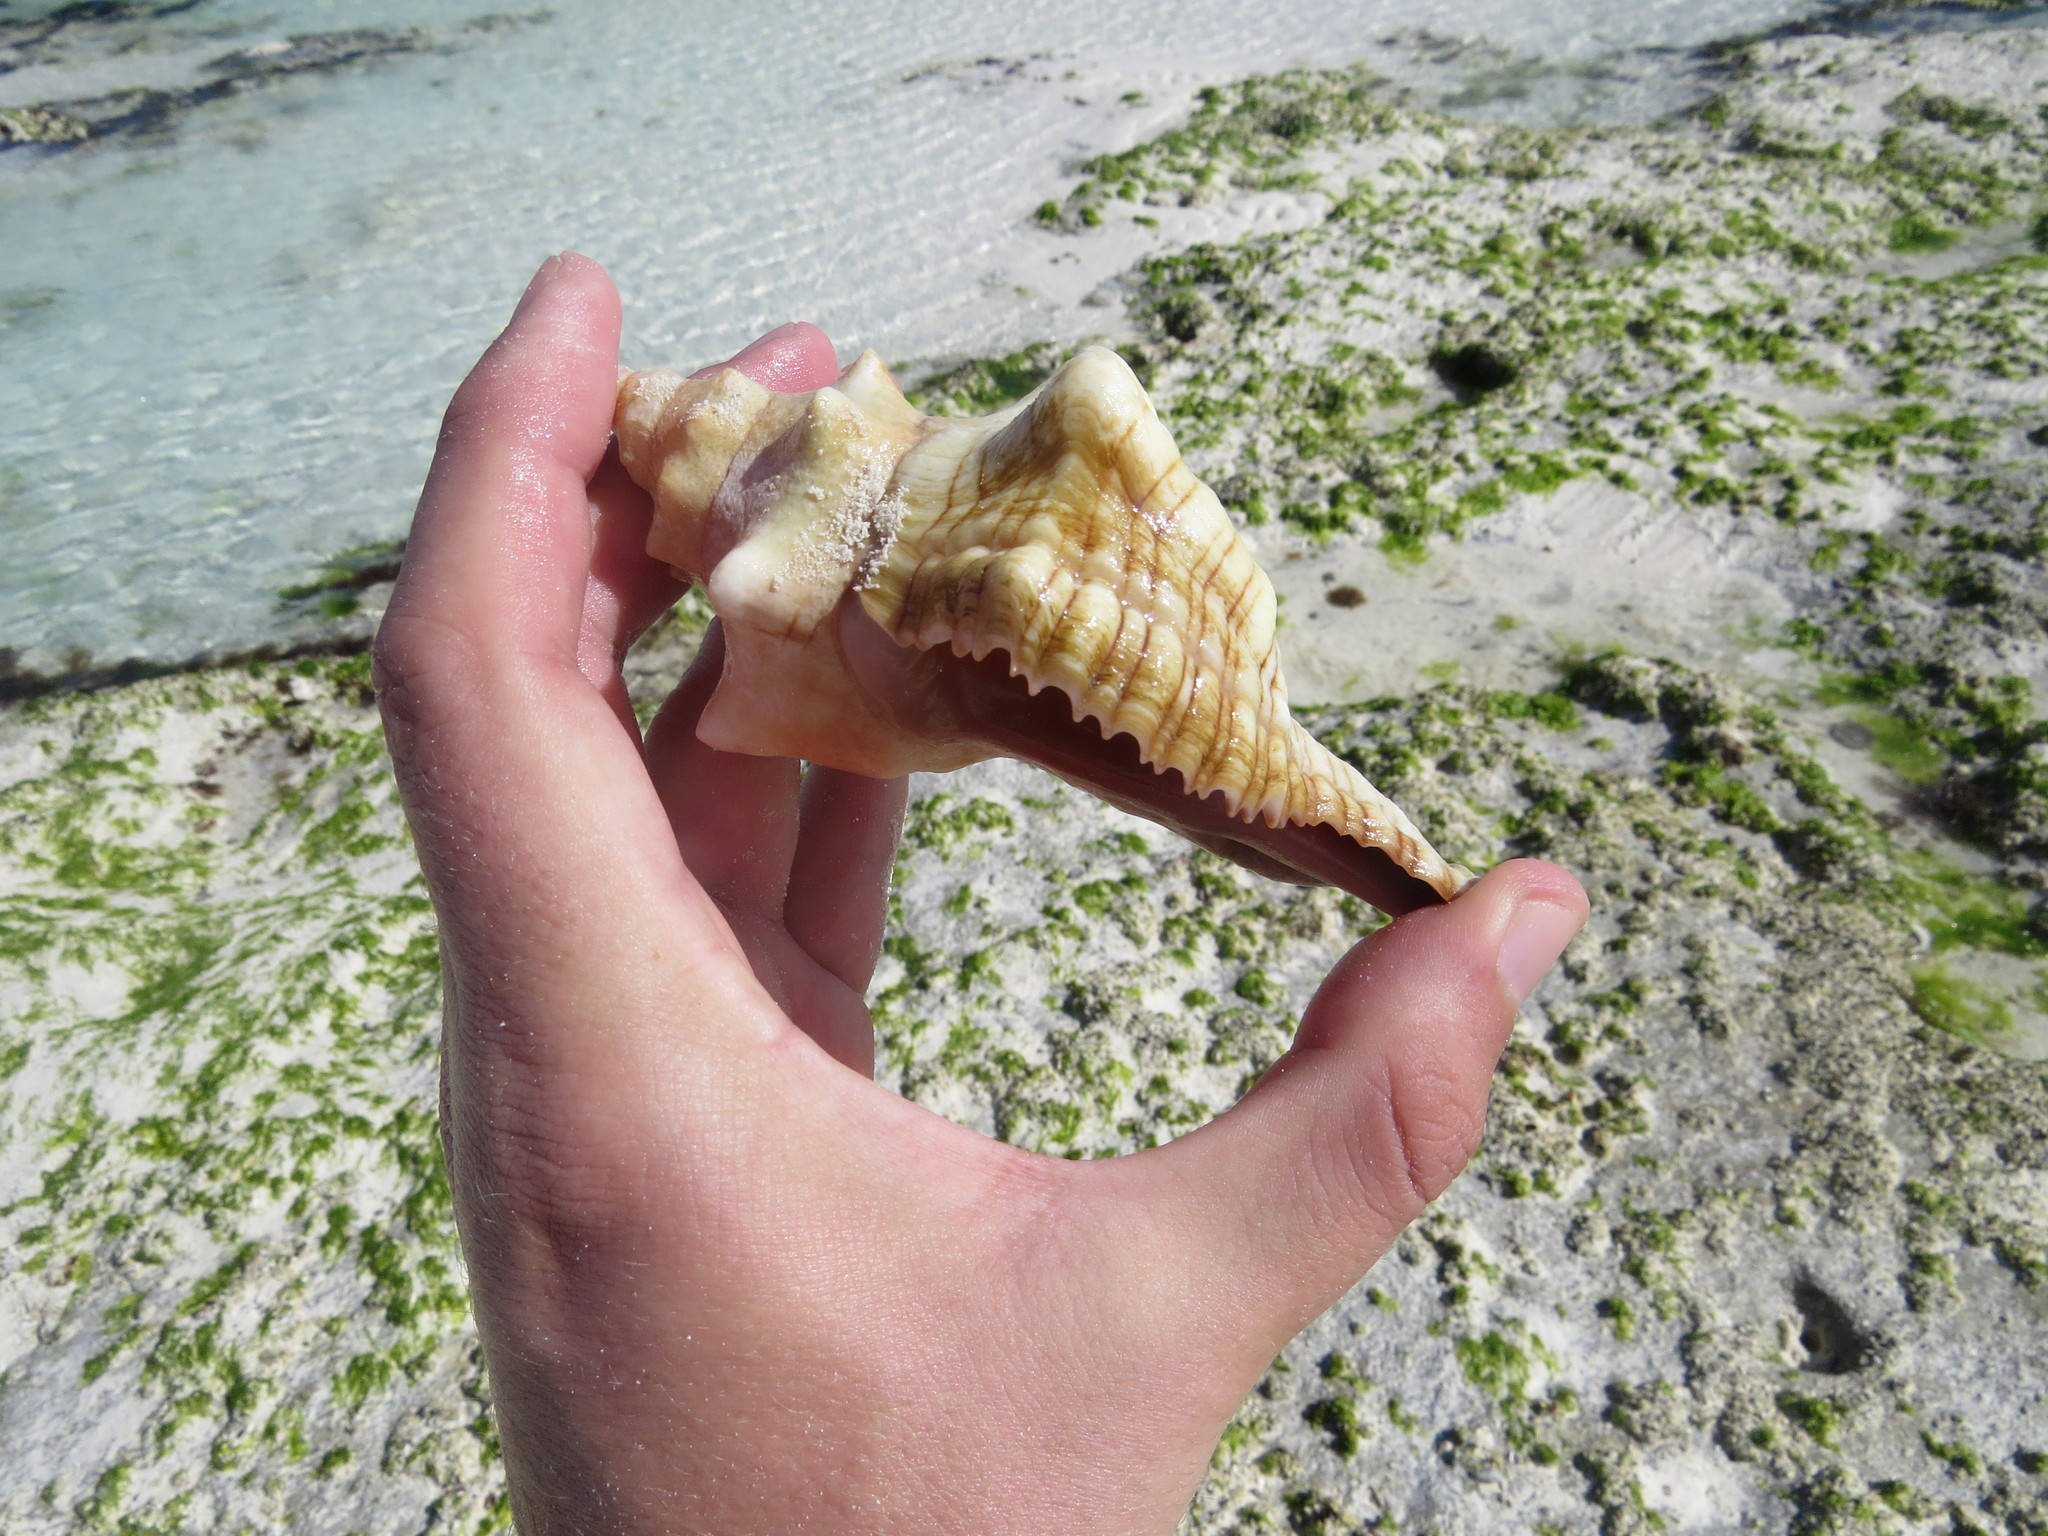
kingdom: Animalia
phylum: Mollusca
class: Gastropoda
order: Neogastropoda
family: Fasciolariidae
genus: Pleuroploca
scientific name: Pleuroploca trapezium
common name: Trapeze horseconch
